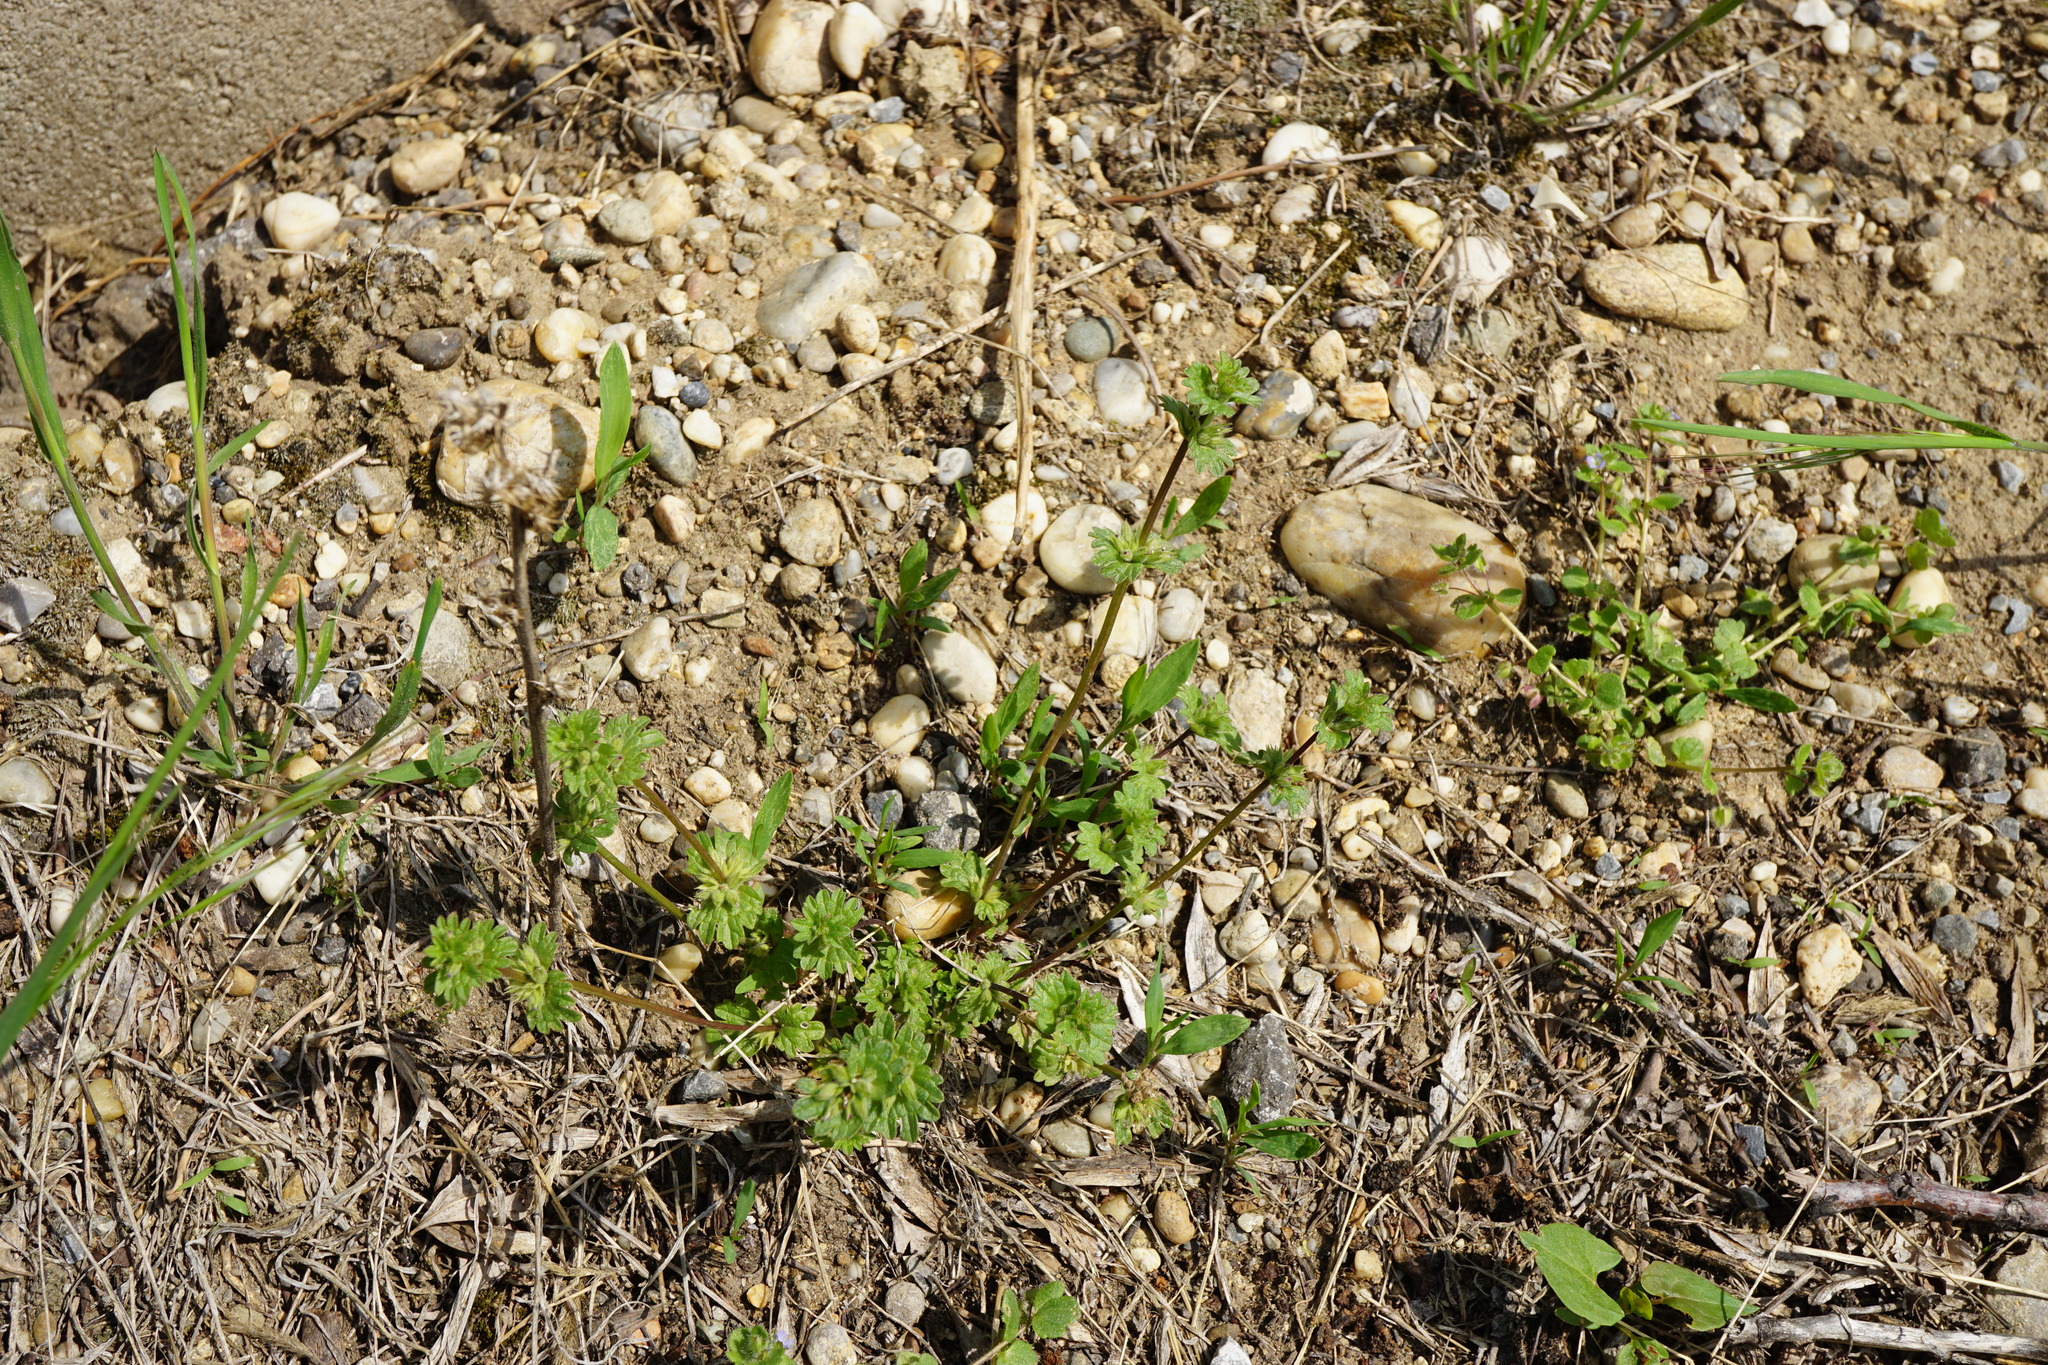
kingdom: Plantae
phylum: Tracheophyta
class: Magnoliopsida
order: Lamiales
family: Lamiaceae
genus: Lamium
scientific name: Lamium amplexicaule
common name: Henbit dead-nettle
